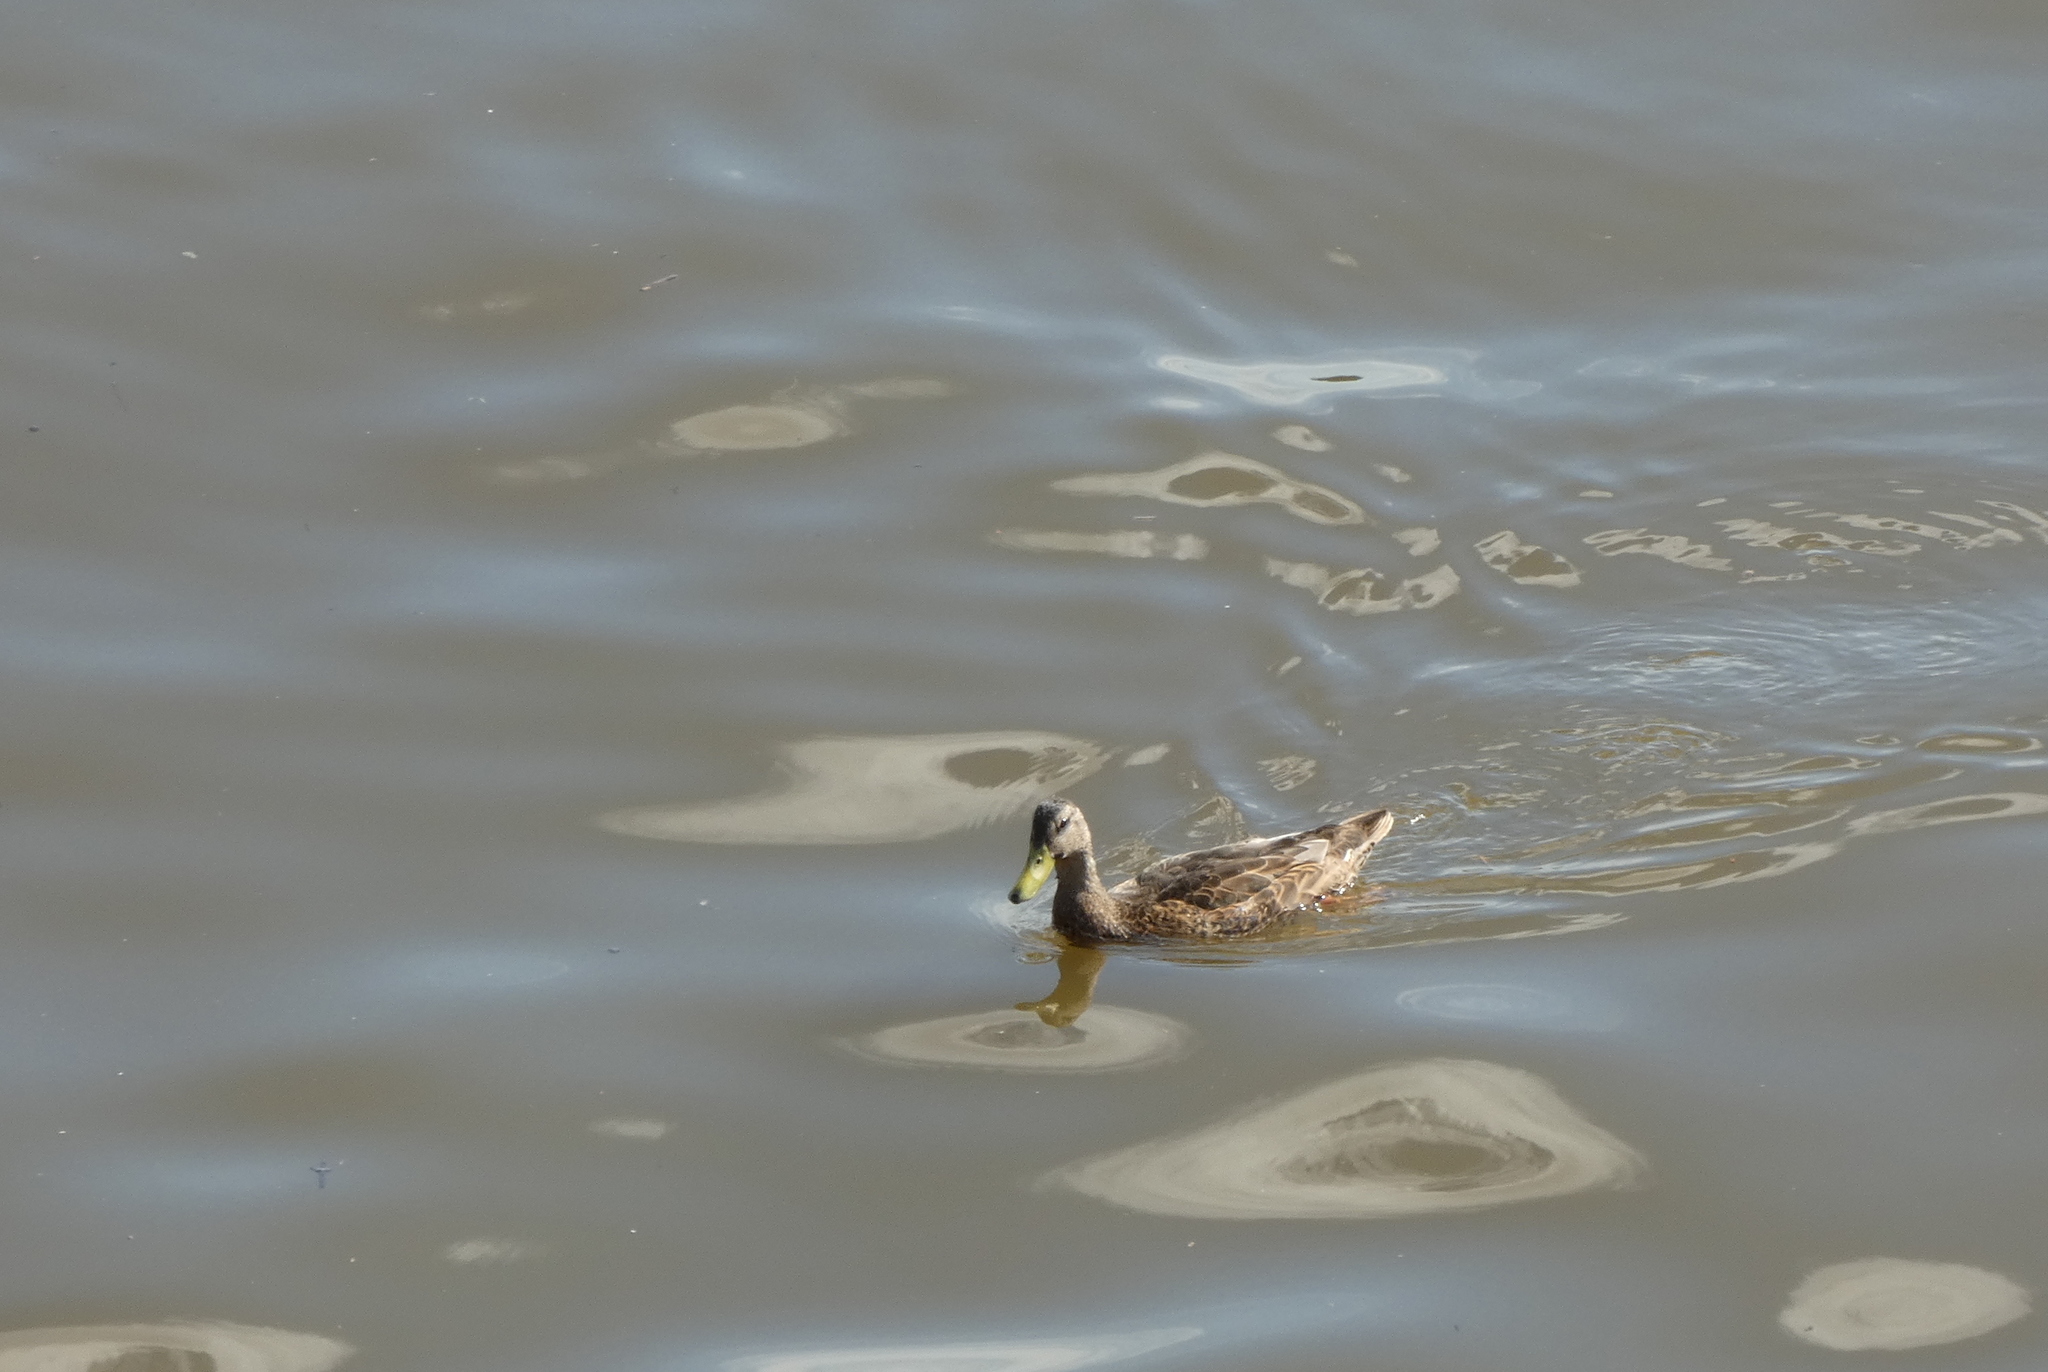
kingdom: Animalia
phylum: Chordata
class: Aves
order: Anseriformes
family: Anatidae
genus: Anas
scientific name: Anas platyrhynchos
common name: Mallard
